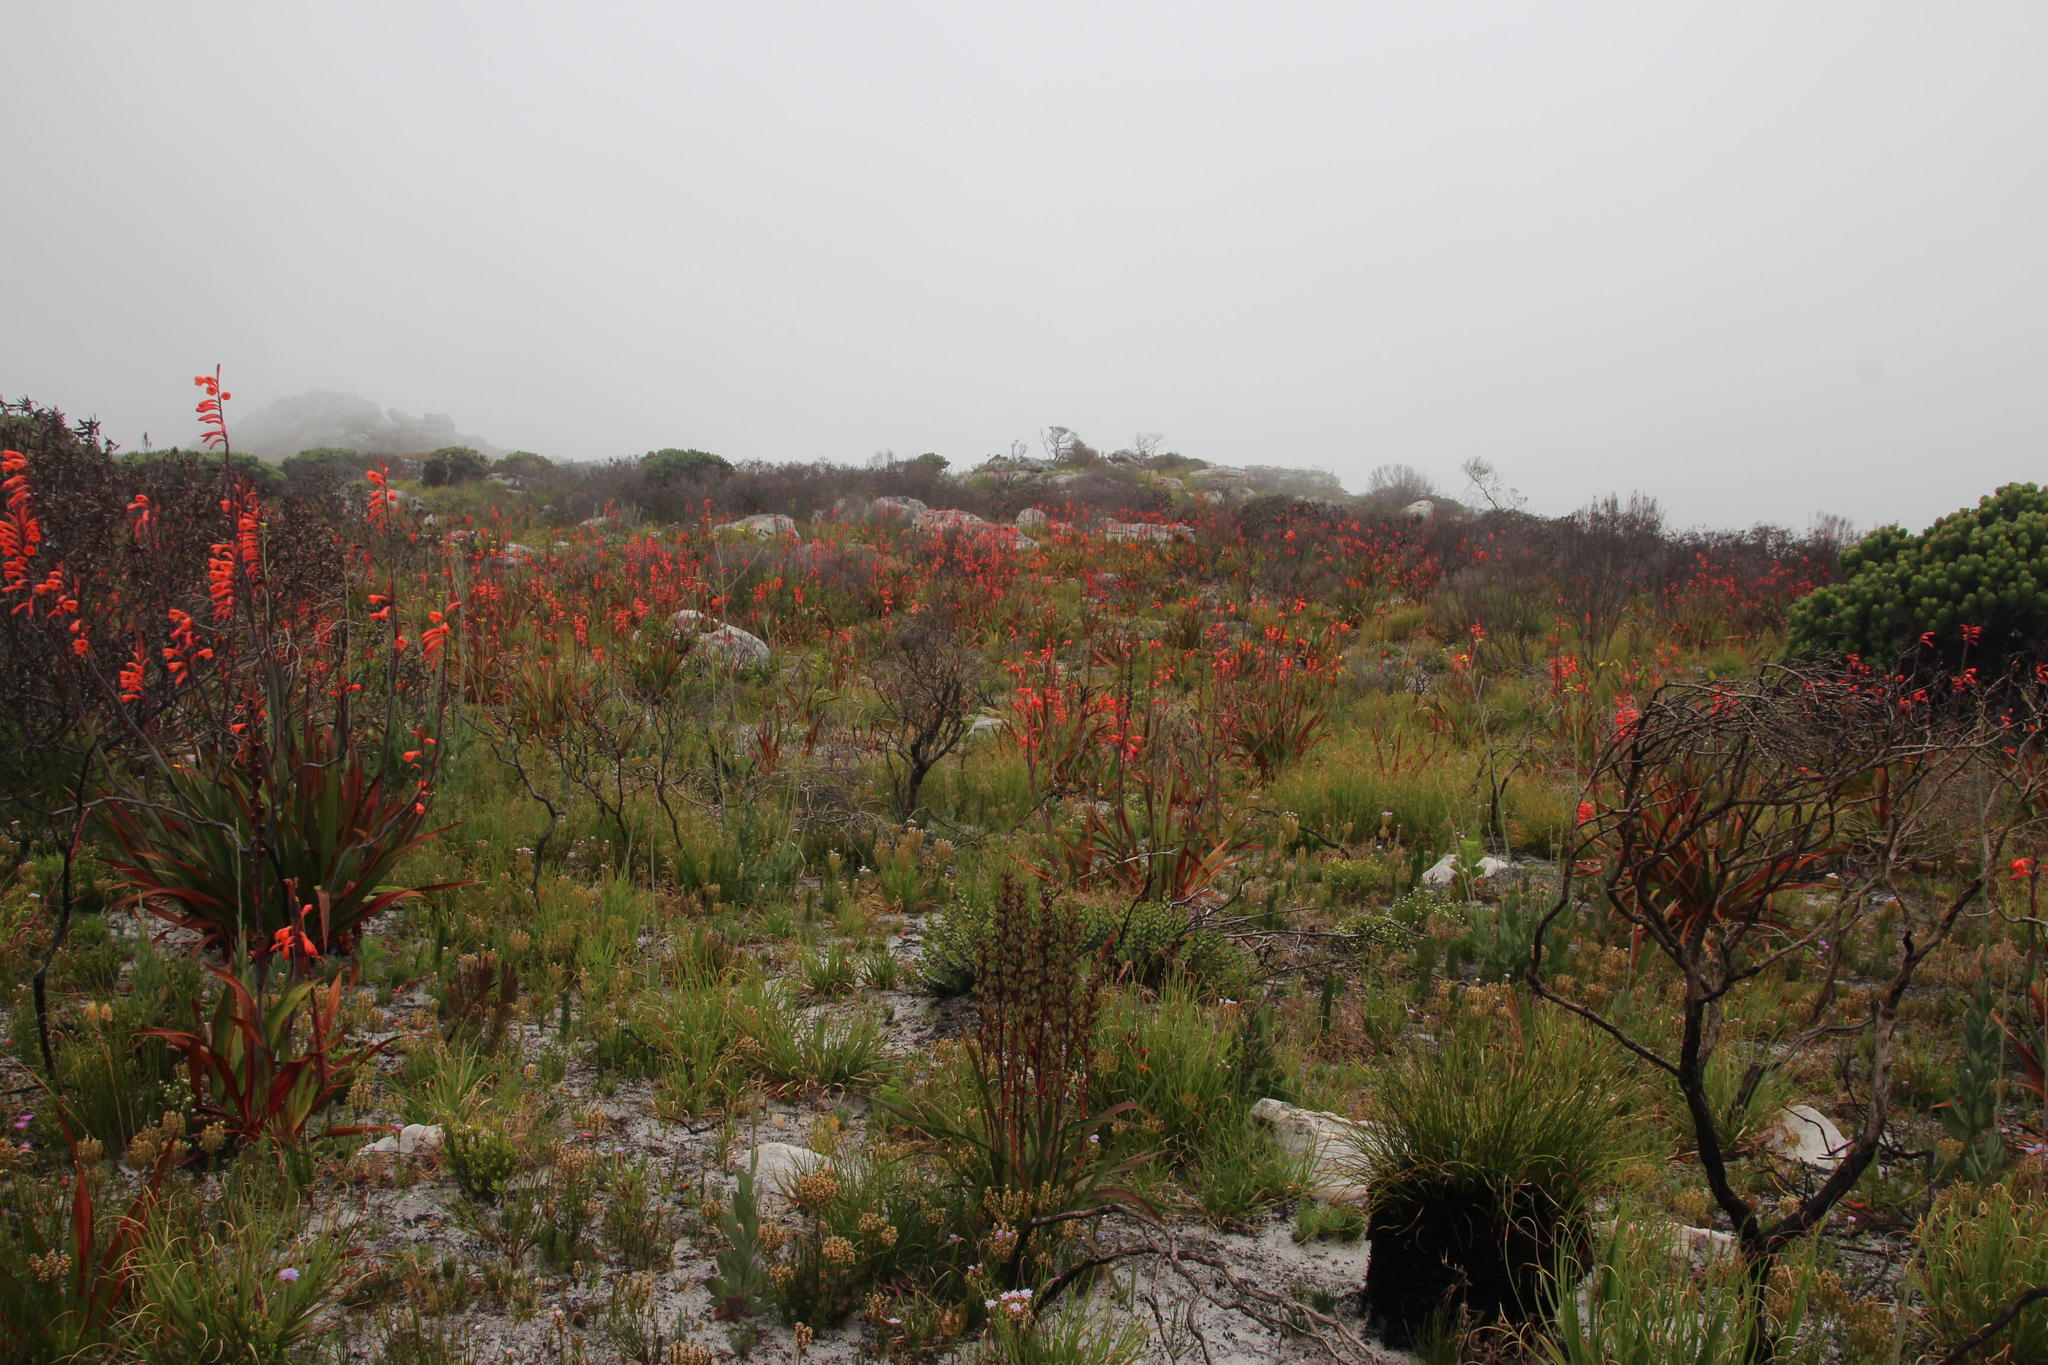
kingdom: Plantae
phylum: Tracheophyta
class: Liliopsida
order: Asparagales
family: Iridaceae
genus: Watsonia
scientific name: Watsonia tabularis
